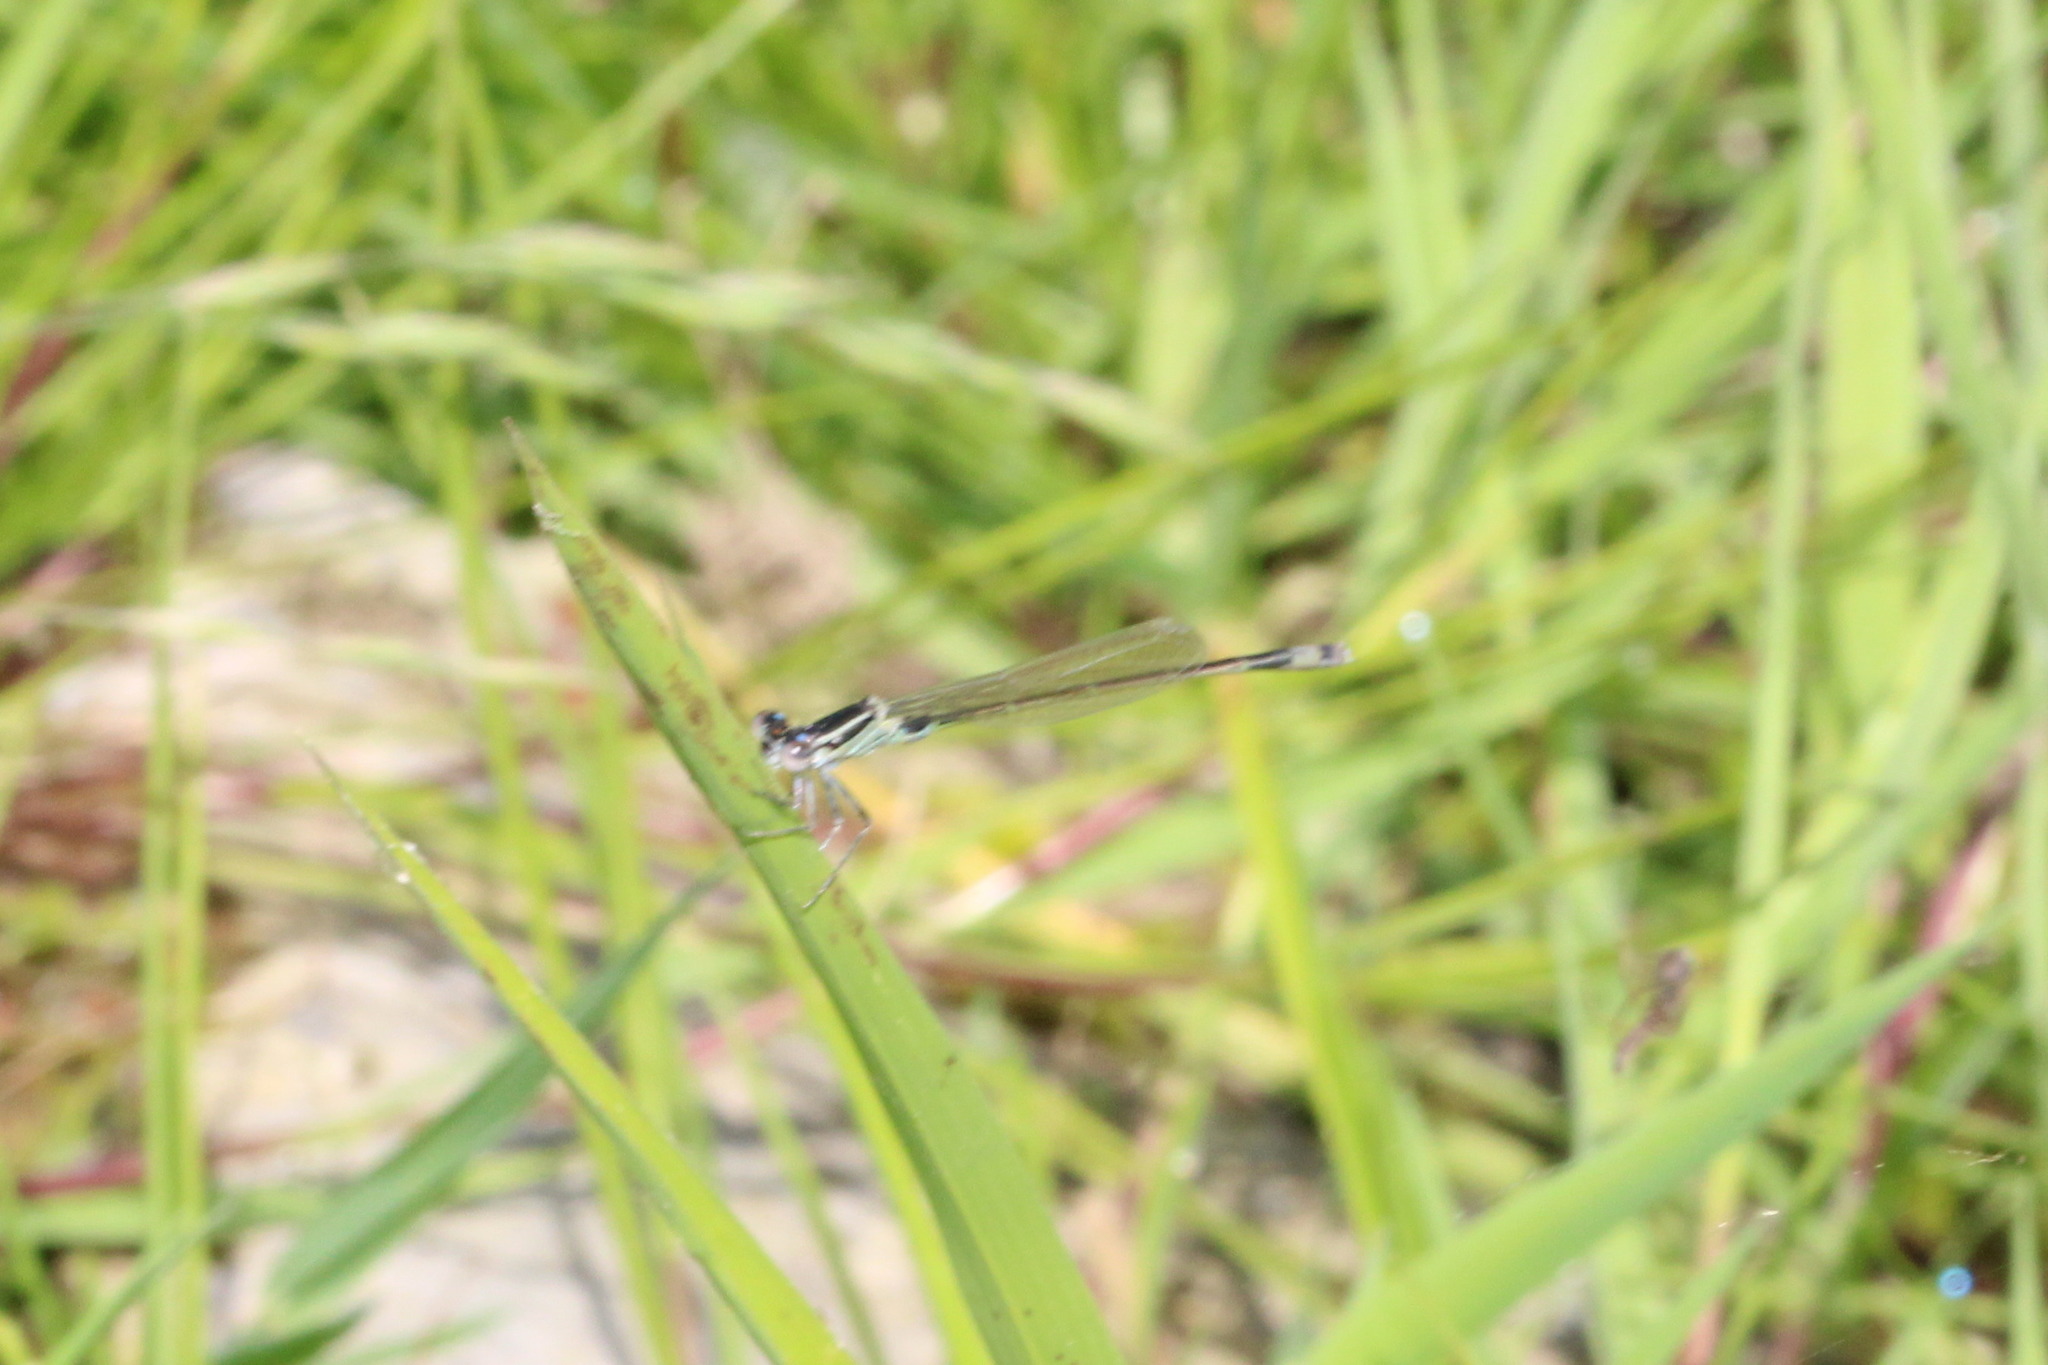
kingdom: Animalia
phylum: Arthropoda
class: Insecta
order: Odonata
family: Coenagrionidae
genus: Ischnura
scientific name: Ischnura elegans
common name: Blue-tailed damselfly
